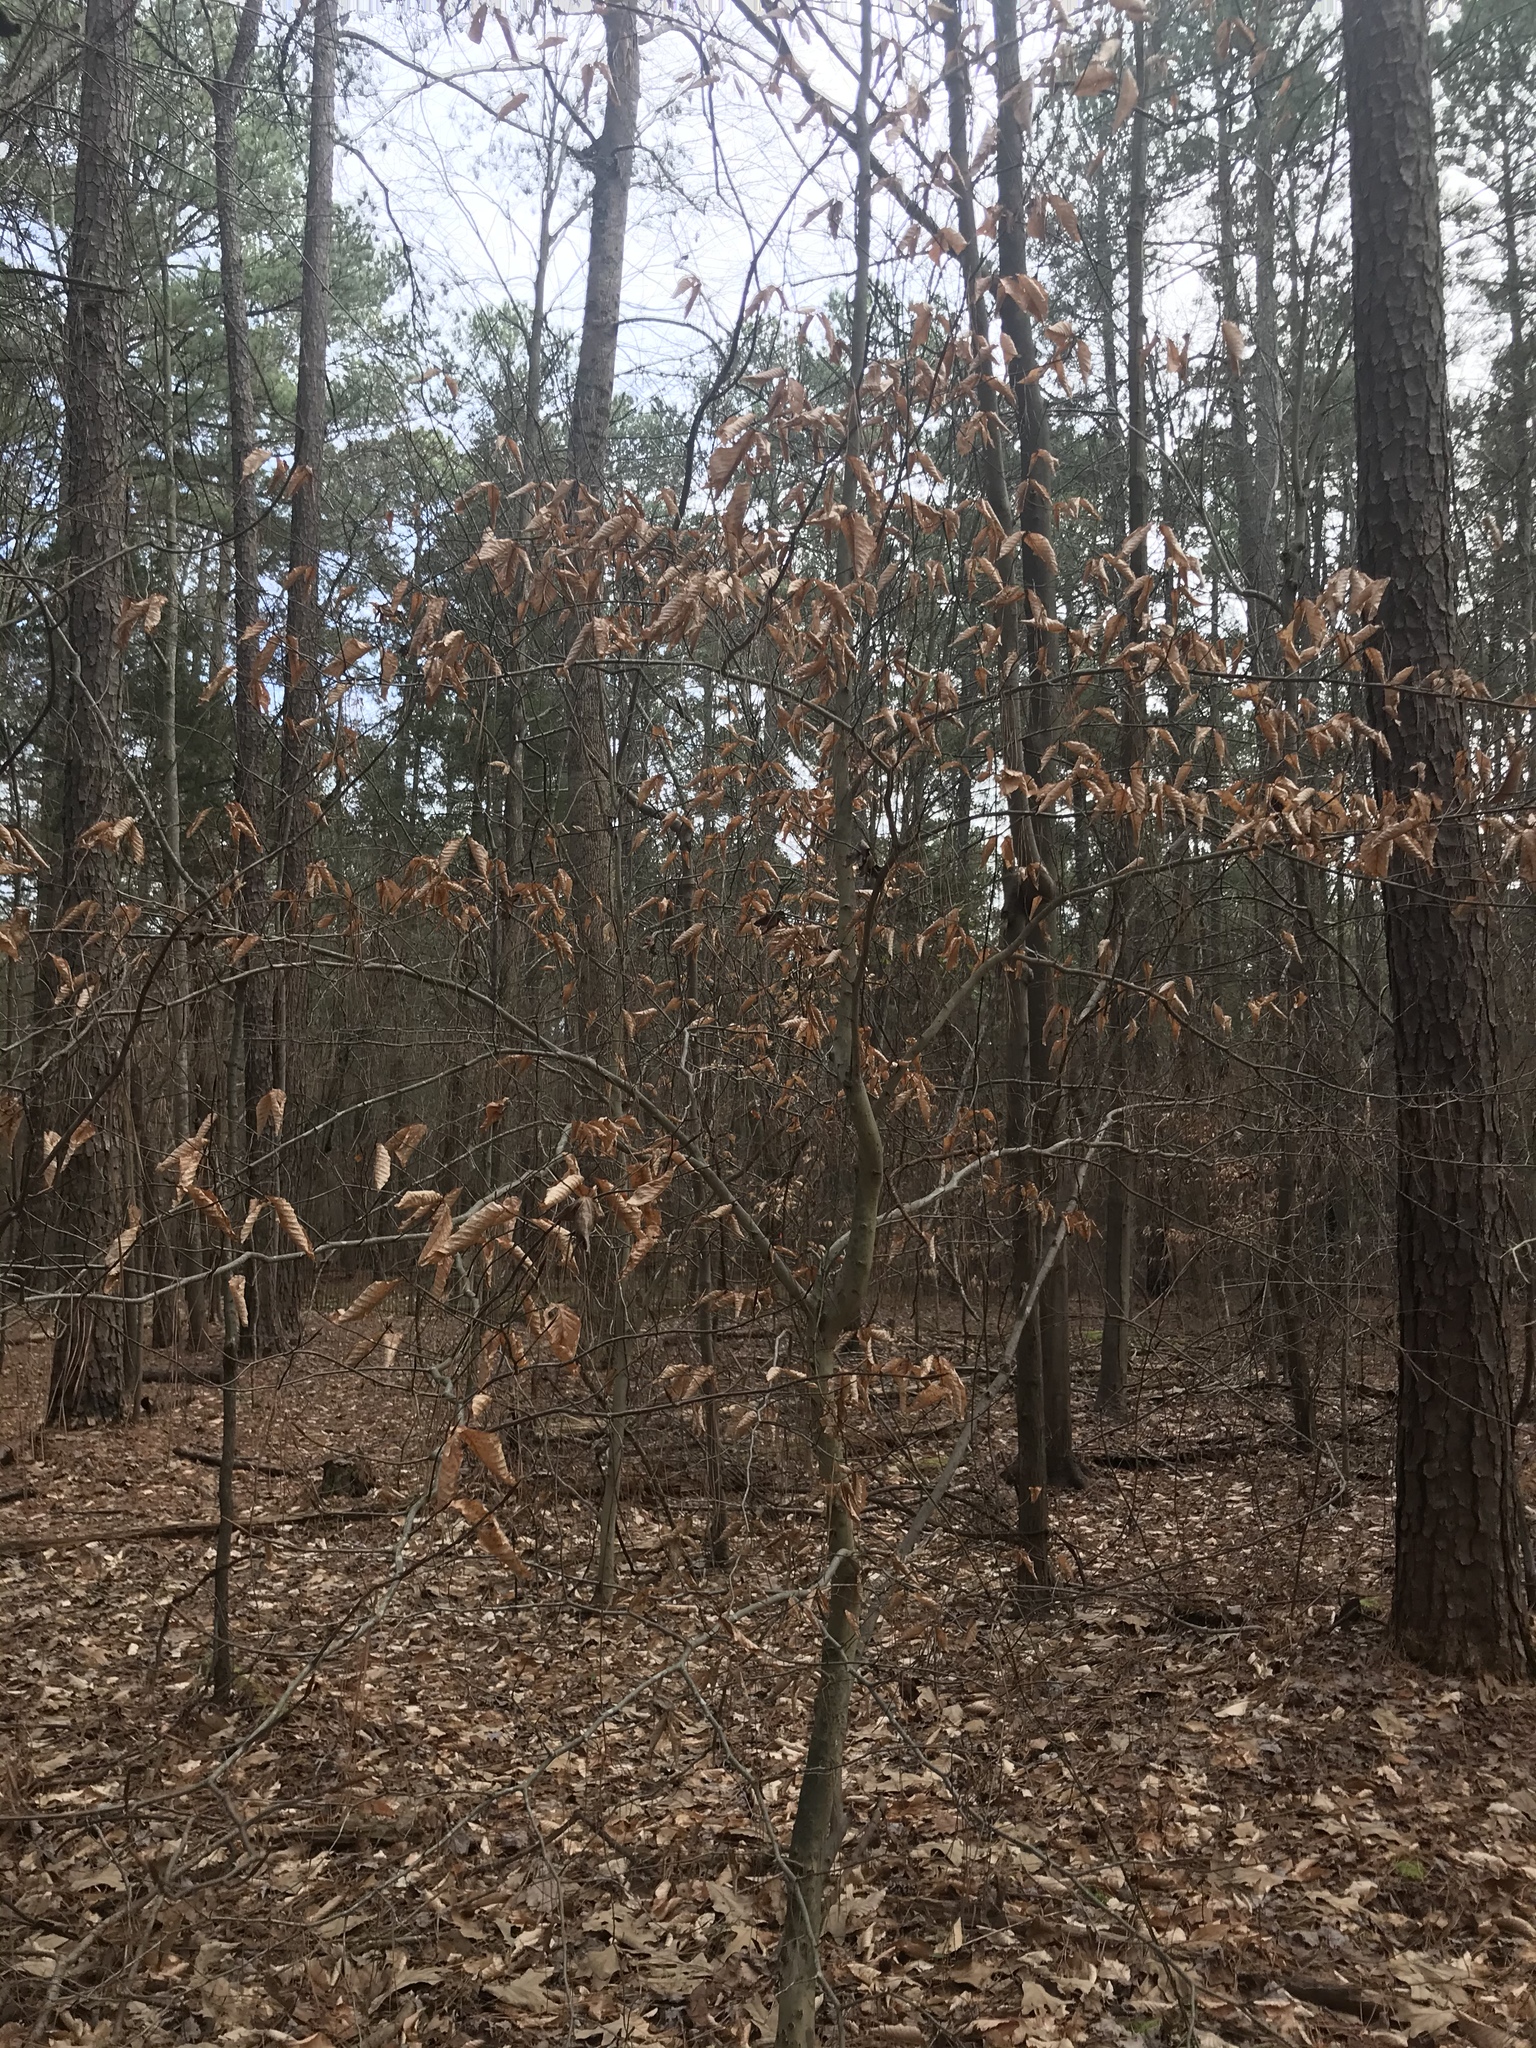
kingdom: Plantae
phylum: Tracheophyta
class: Magnoliopsida
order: Fagales
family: Fagaceae
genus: Fagus
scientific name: Fagus grandifolia
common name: American beech
